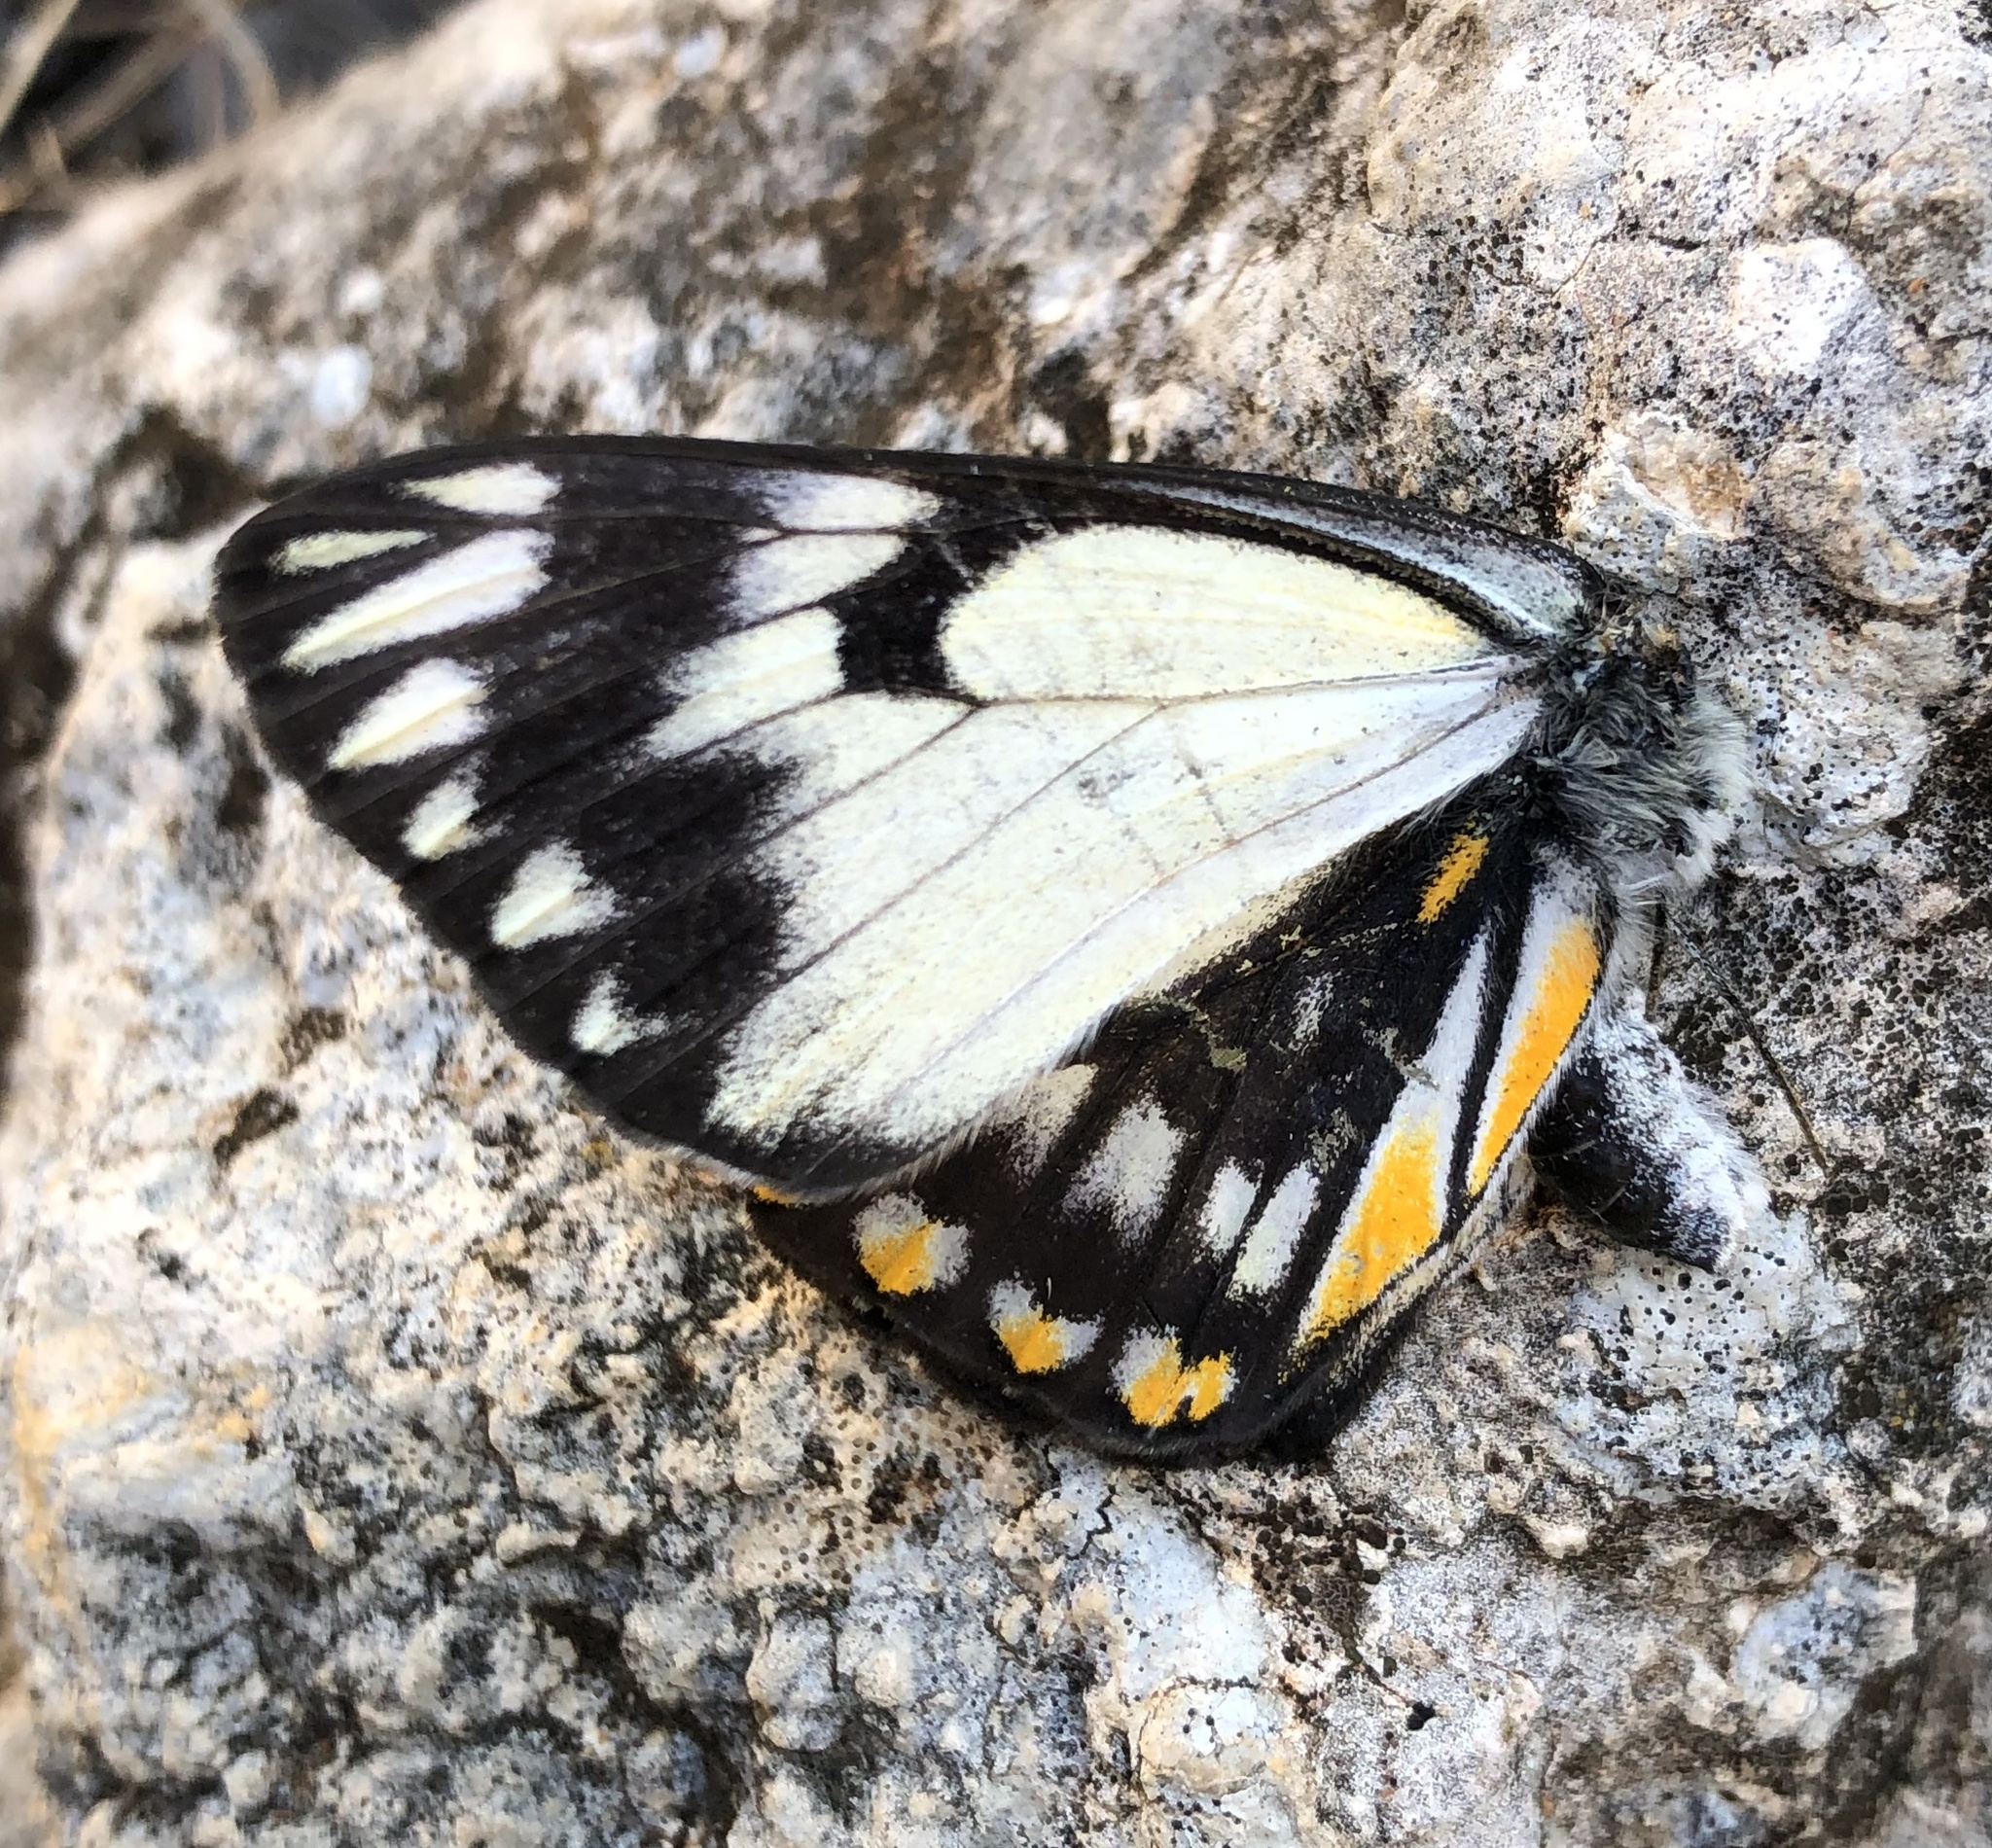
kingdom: Animalia
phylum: Arthropoda
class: Insecta
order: Lepidoptera
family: Pieridae
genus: Belenois
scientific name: Belenois java
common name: Caper white
